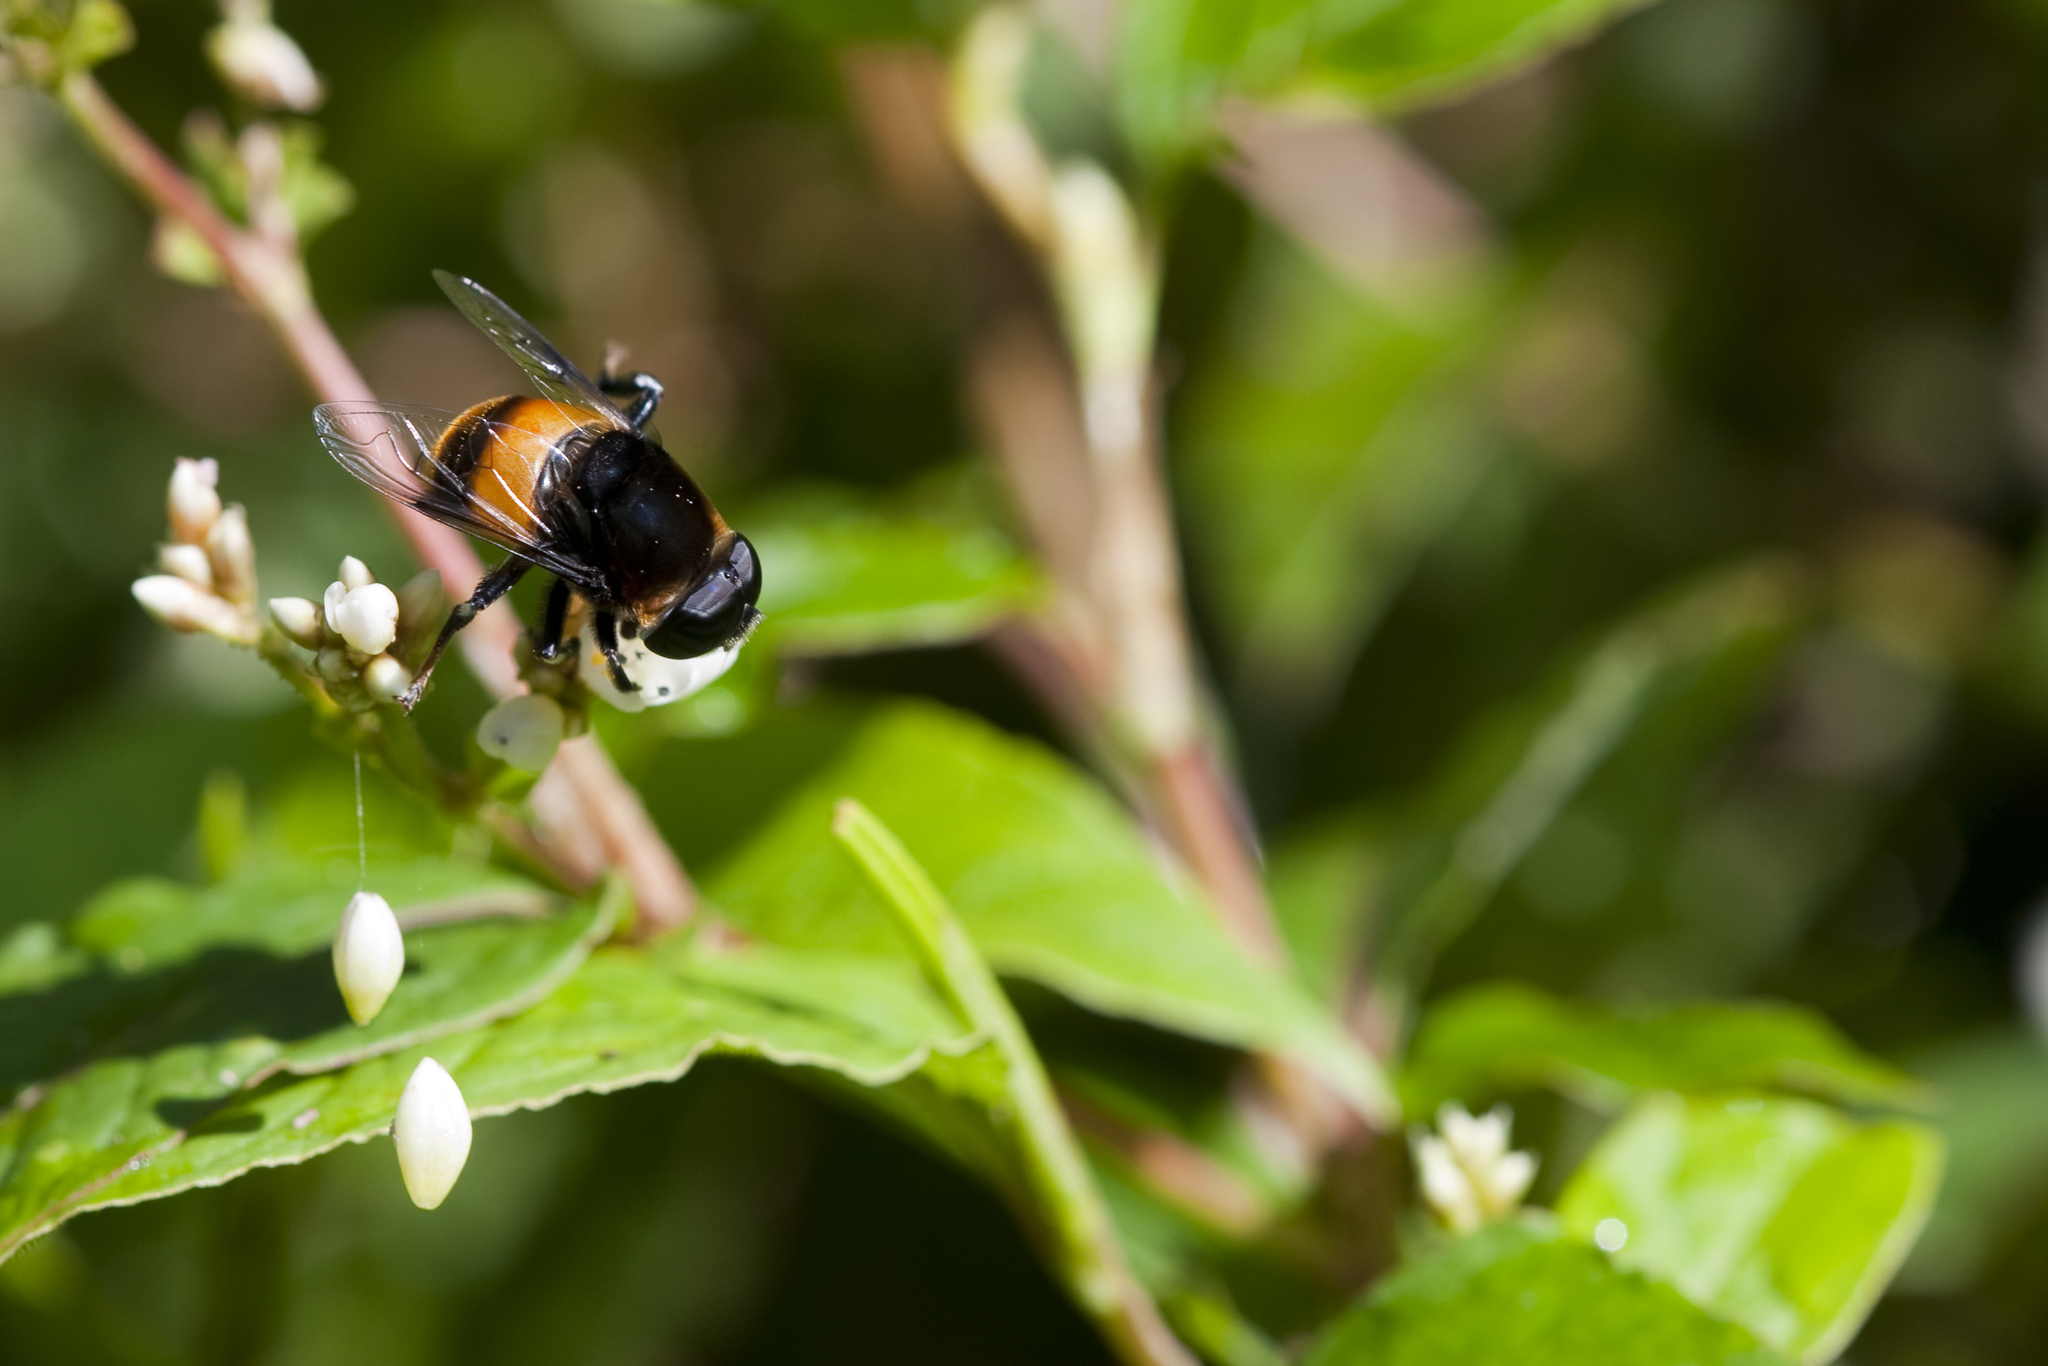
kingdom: Animalia
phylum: Arthropoda
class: Insecta
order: Diptera
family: Syrphidae
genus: Phytomia
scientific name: Phytomia zonata
